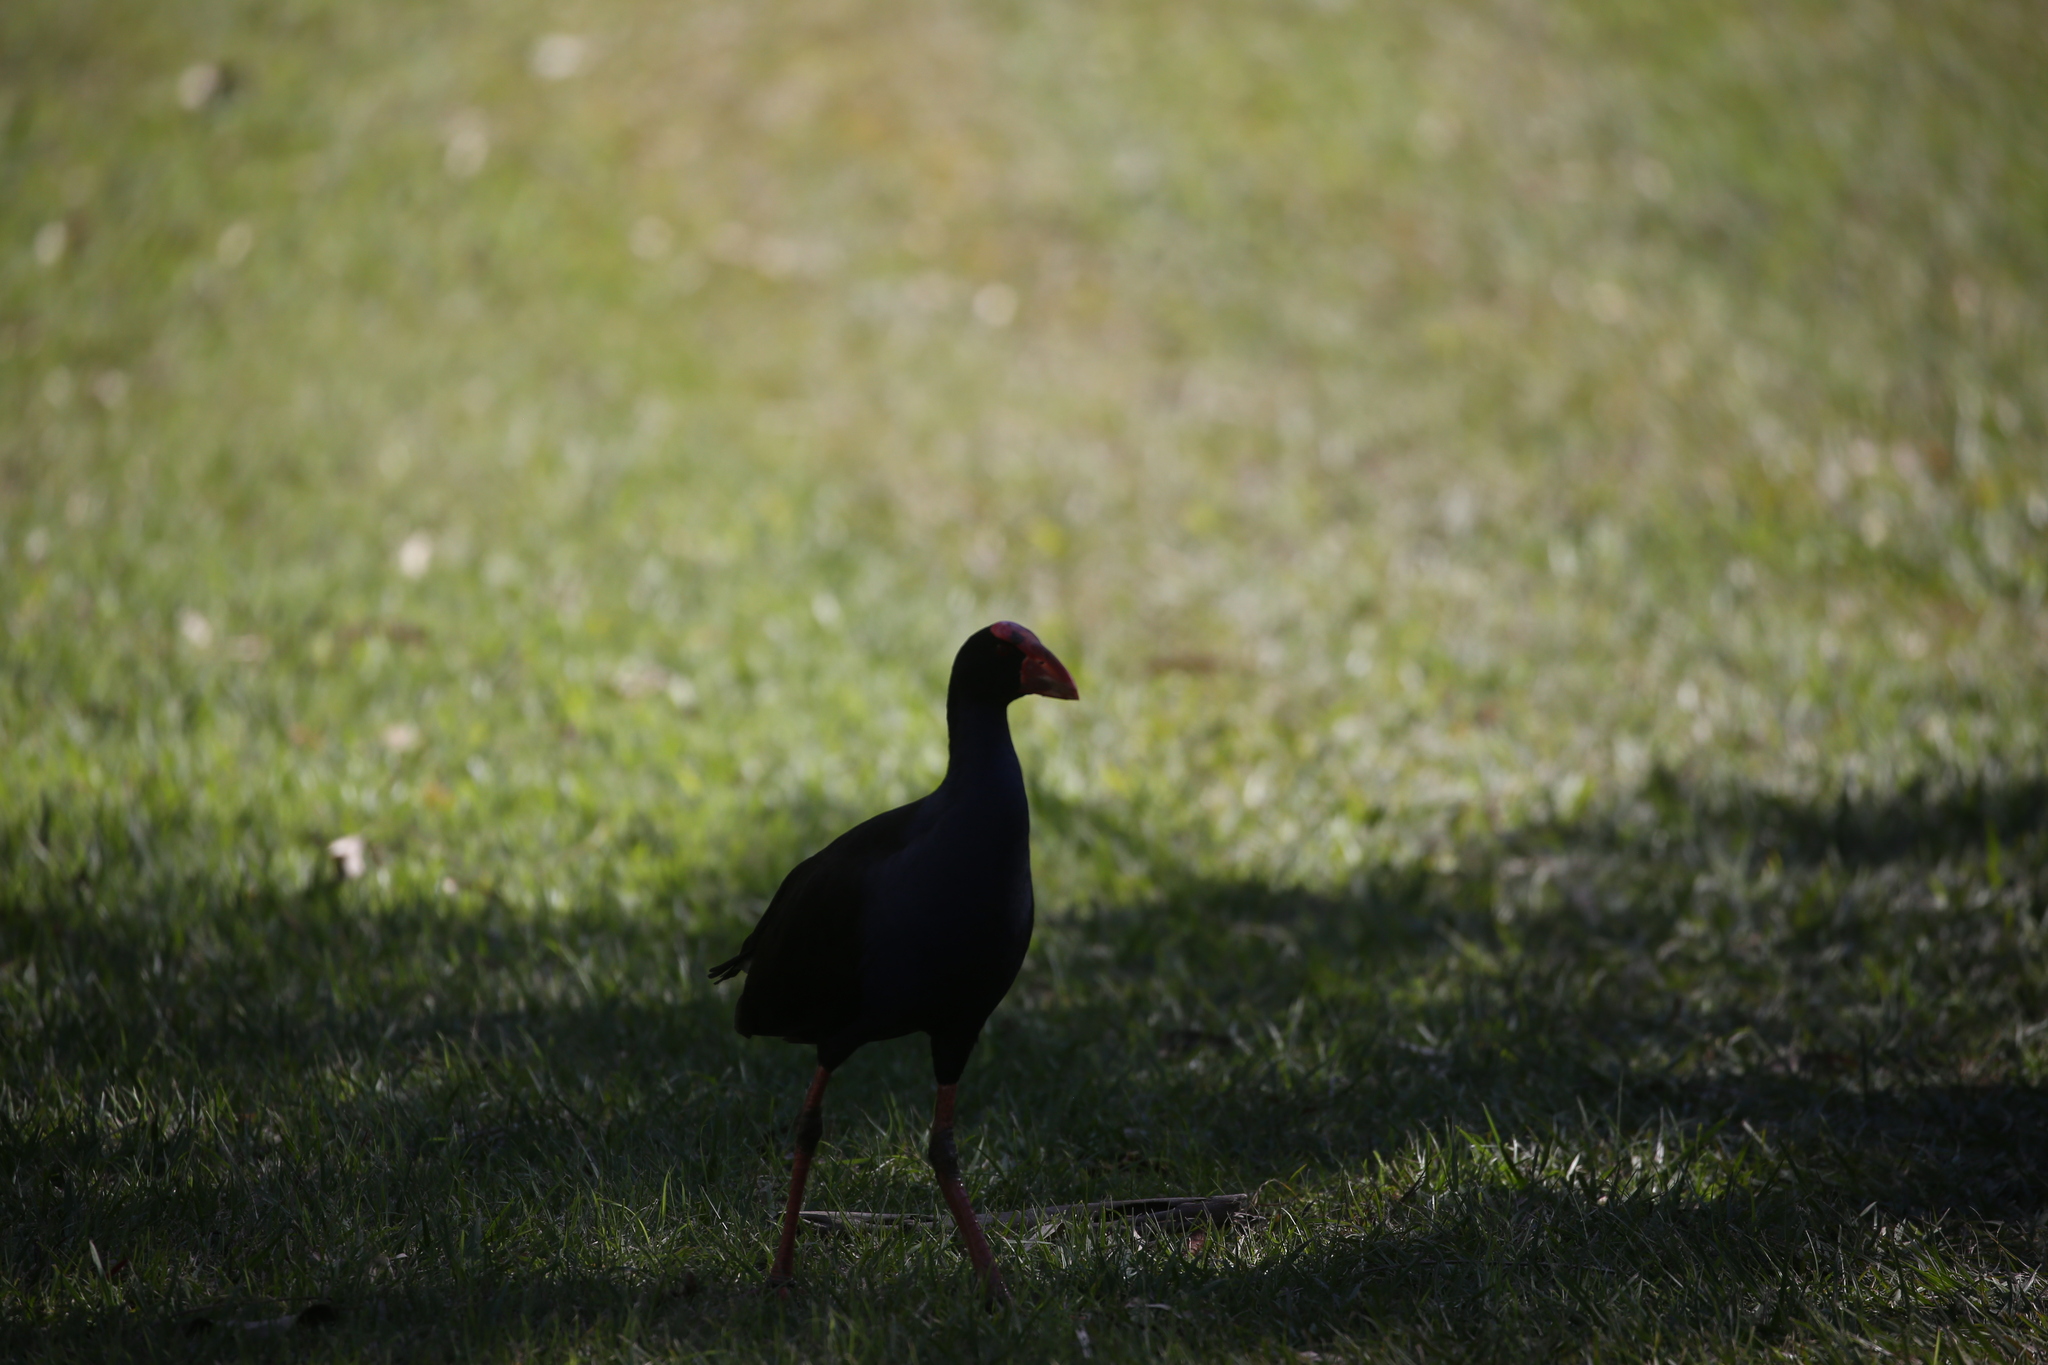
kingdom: Animalia
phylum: Chordata
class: Aves
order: Gruiformes
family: Rallidae
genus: Porphyrio
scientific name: Porphyrio melanotus
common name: Australasian swamphen
